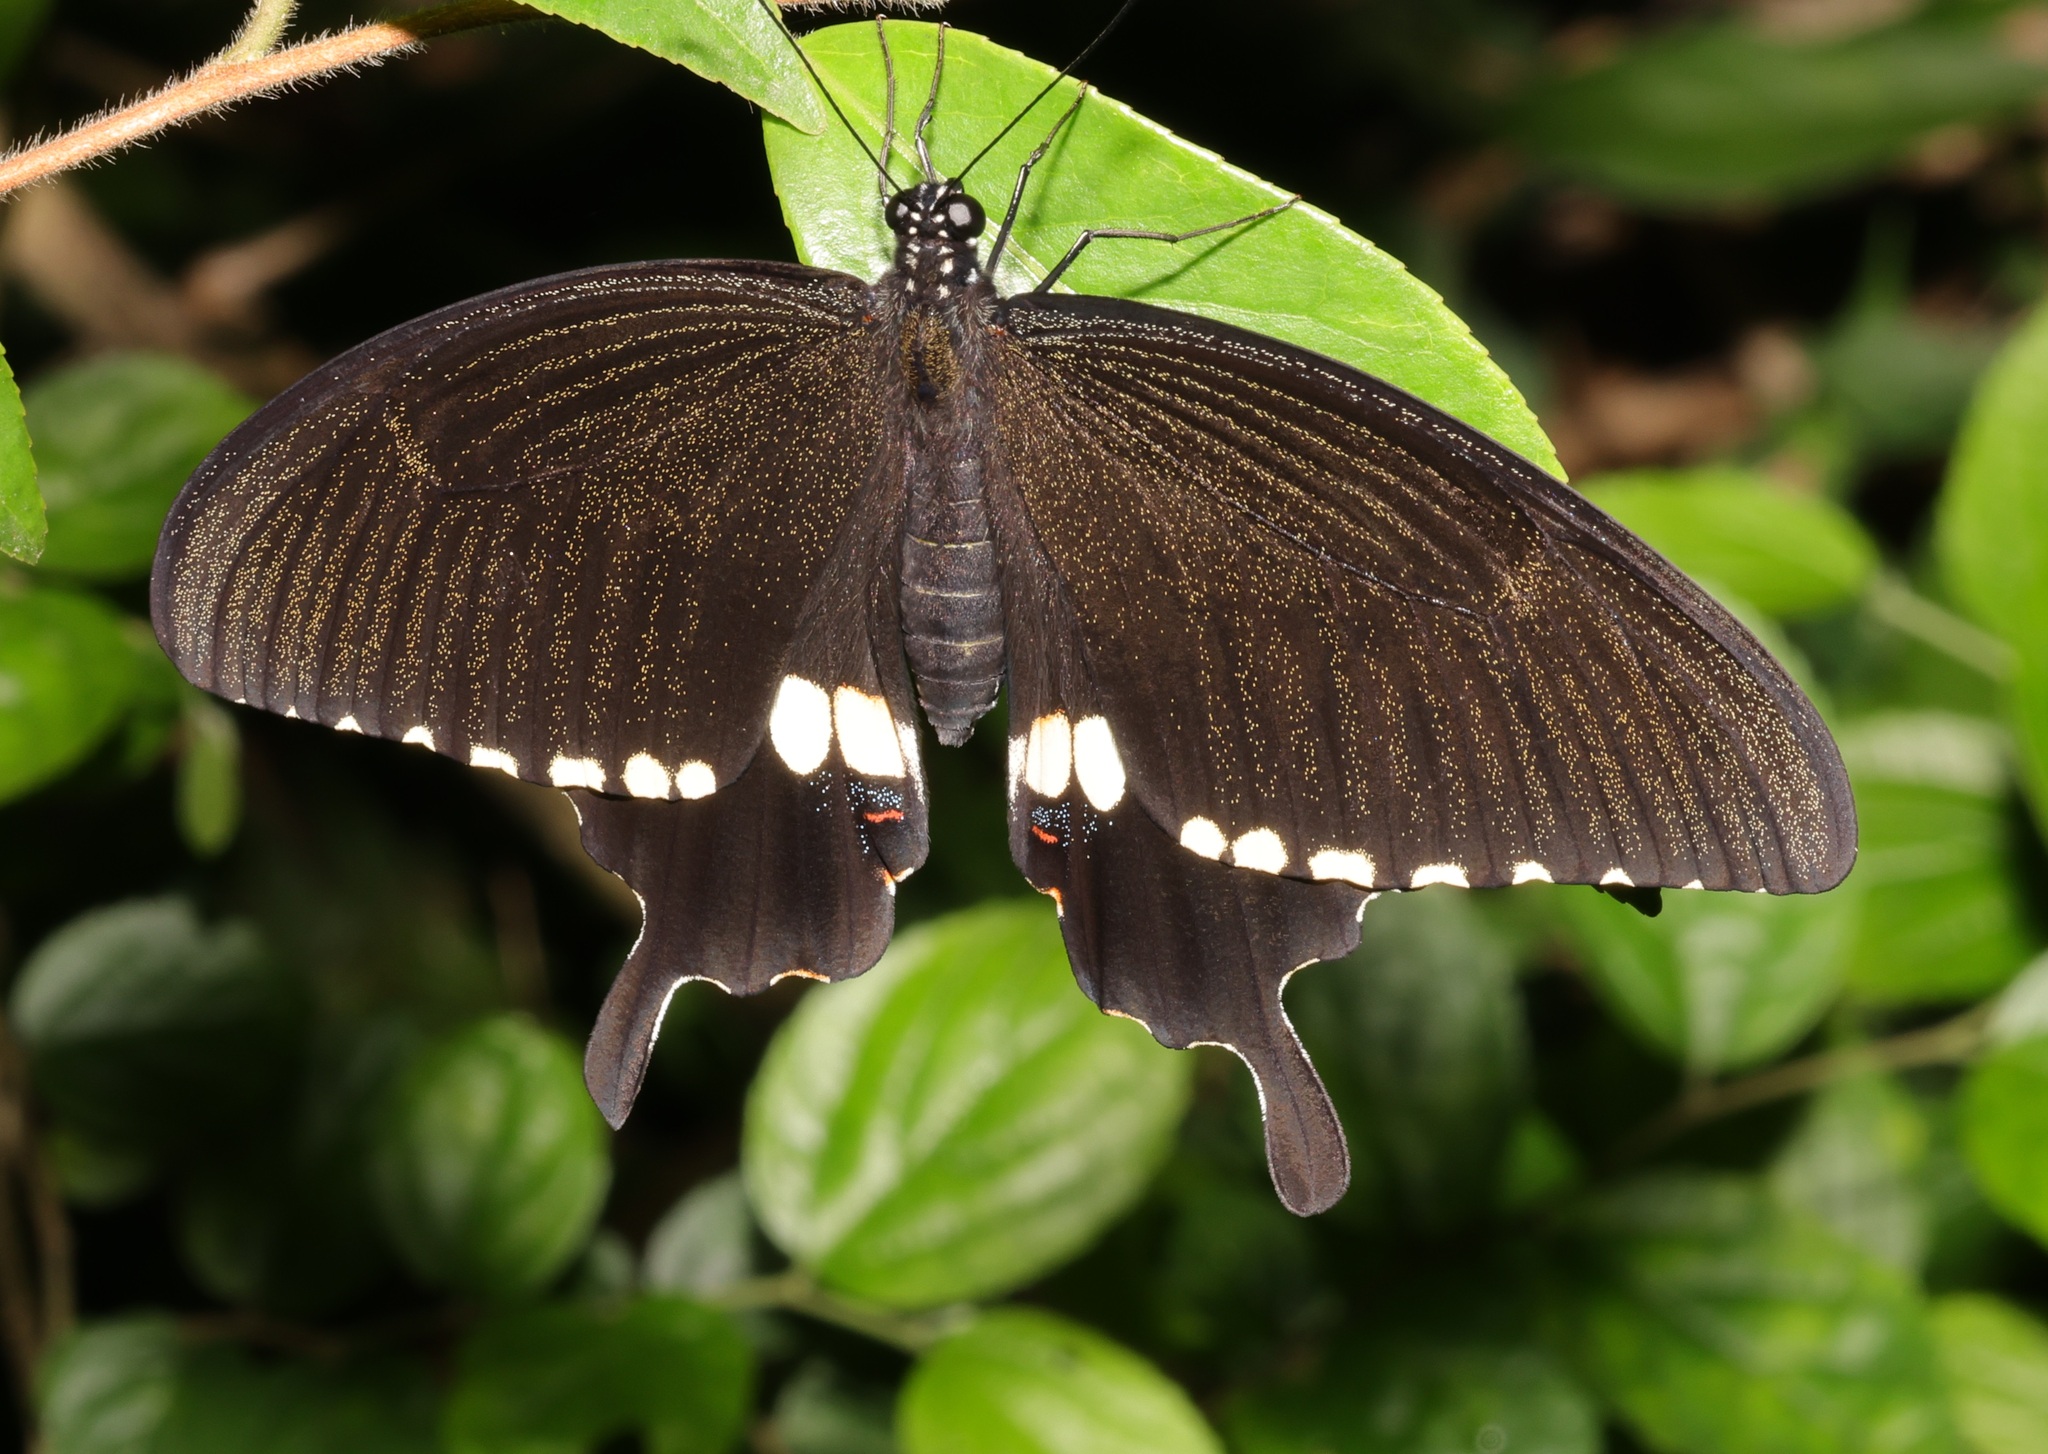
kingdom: Animalia
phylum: Arthropoda
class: Insecta
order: Lepidoptera
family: Papilionidae
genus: Papilio
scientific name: Papilio polytes
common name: Common mormon
